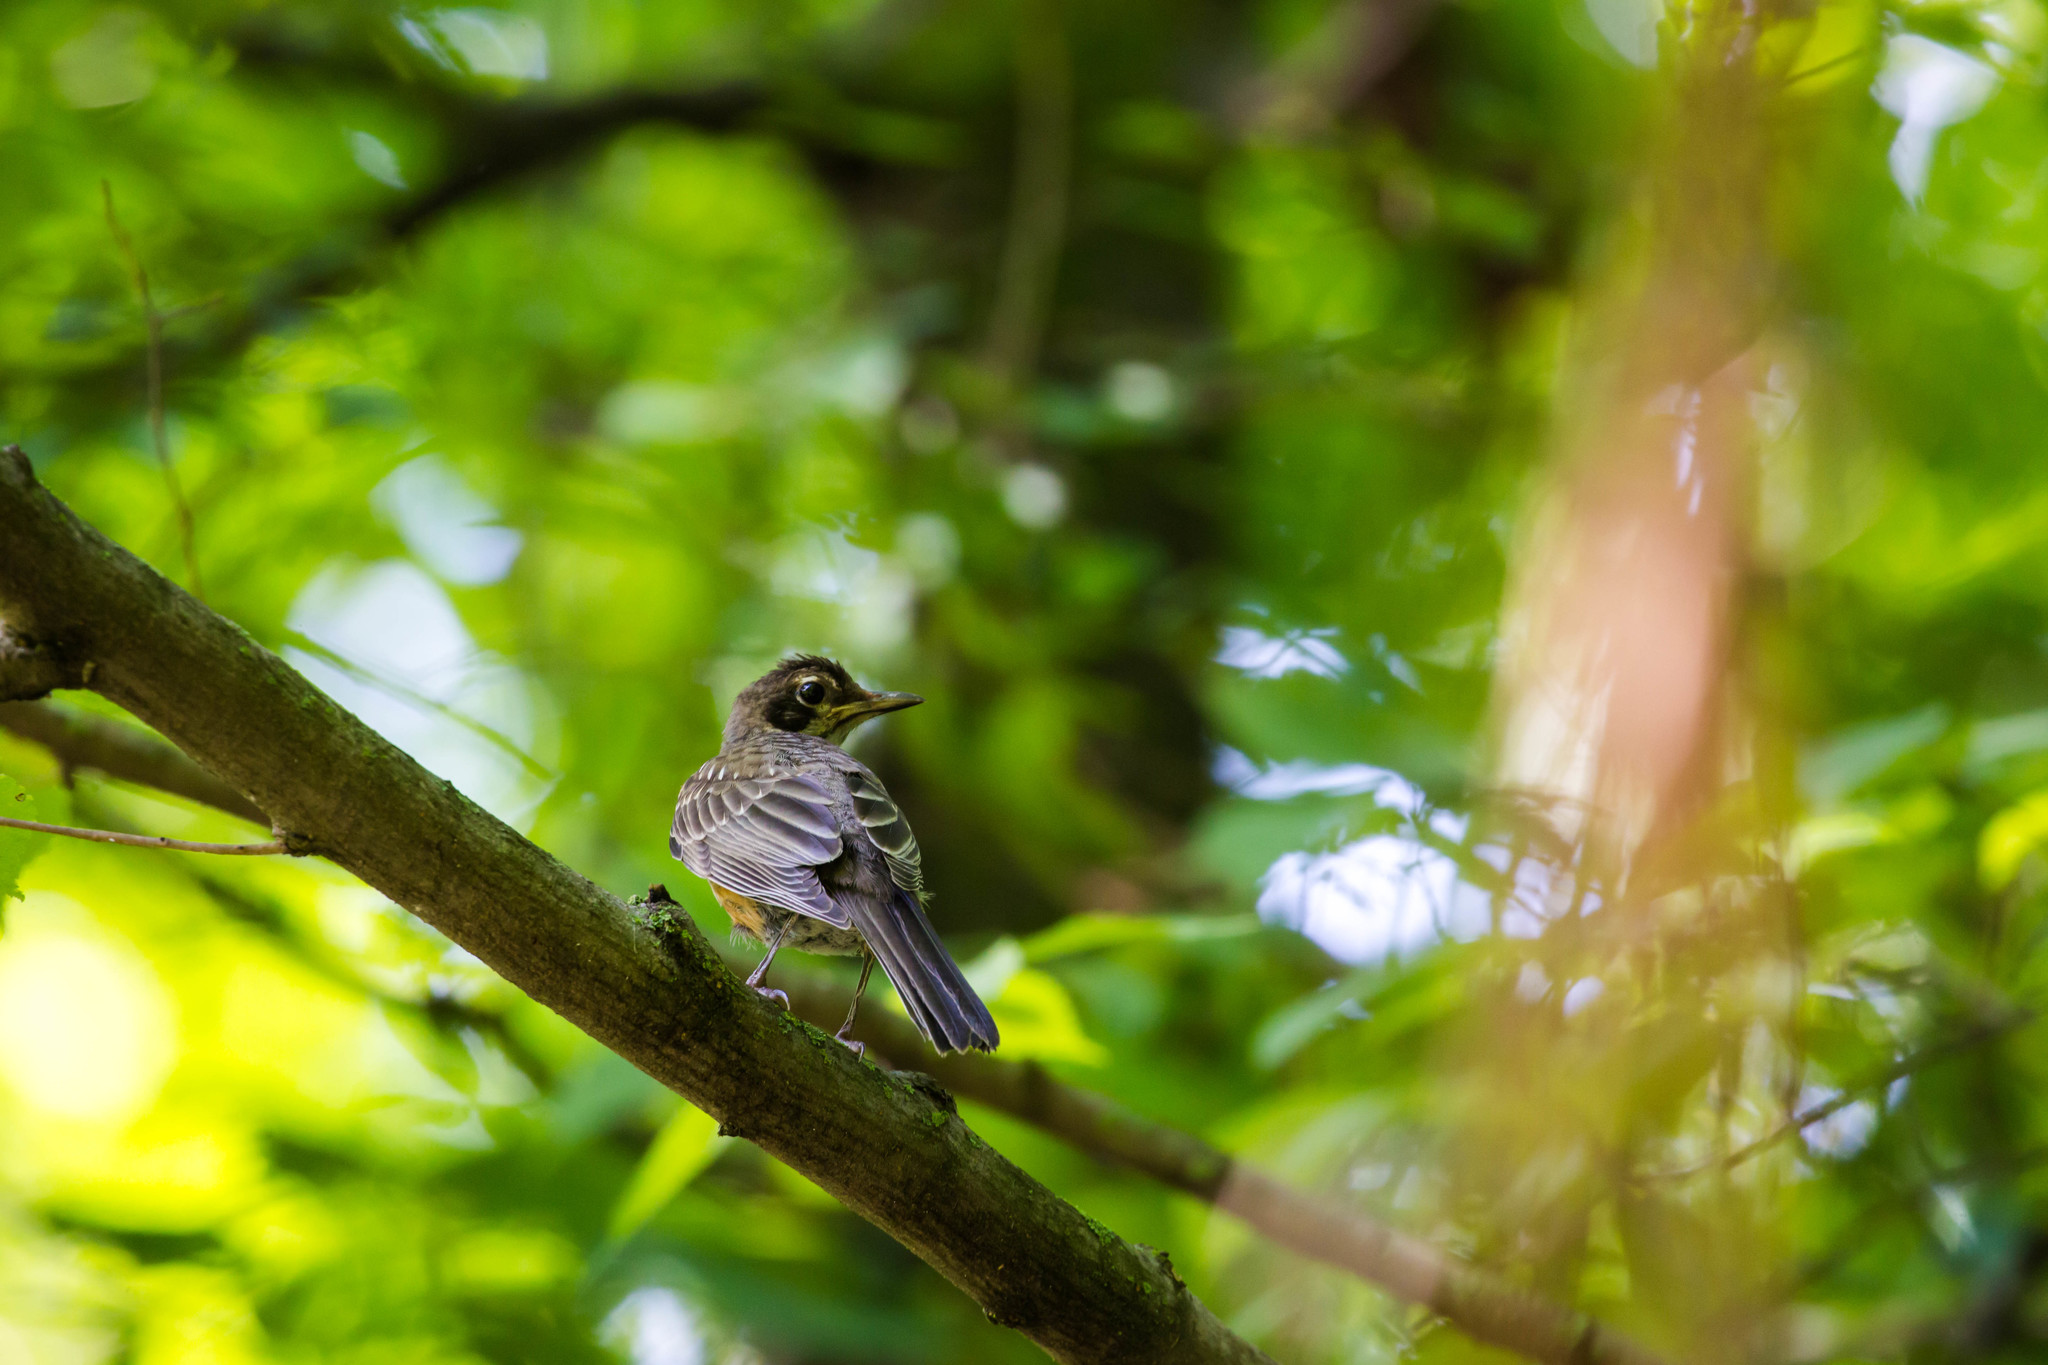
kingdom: Animalia
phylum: Chordata
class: Aves
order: Passeriformes
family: Turdidae
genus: Turdus
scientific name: Turdus migratorius
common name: American robin
